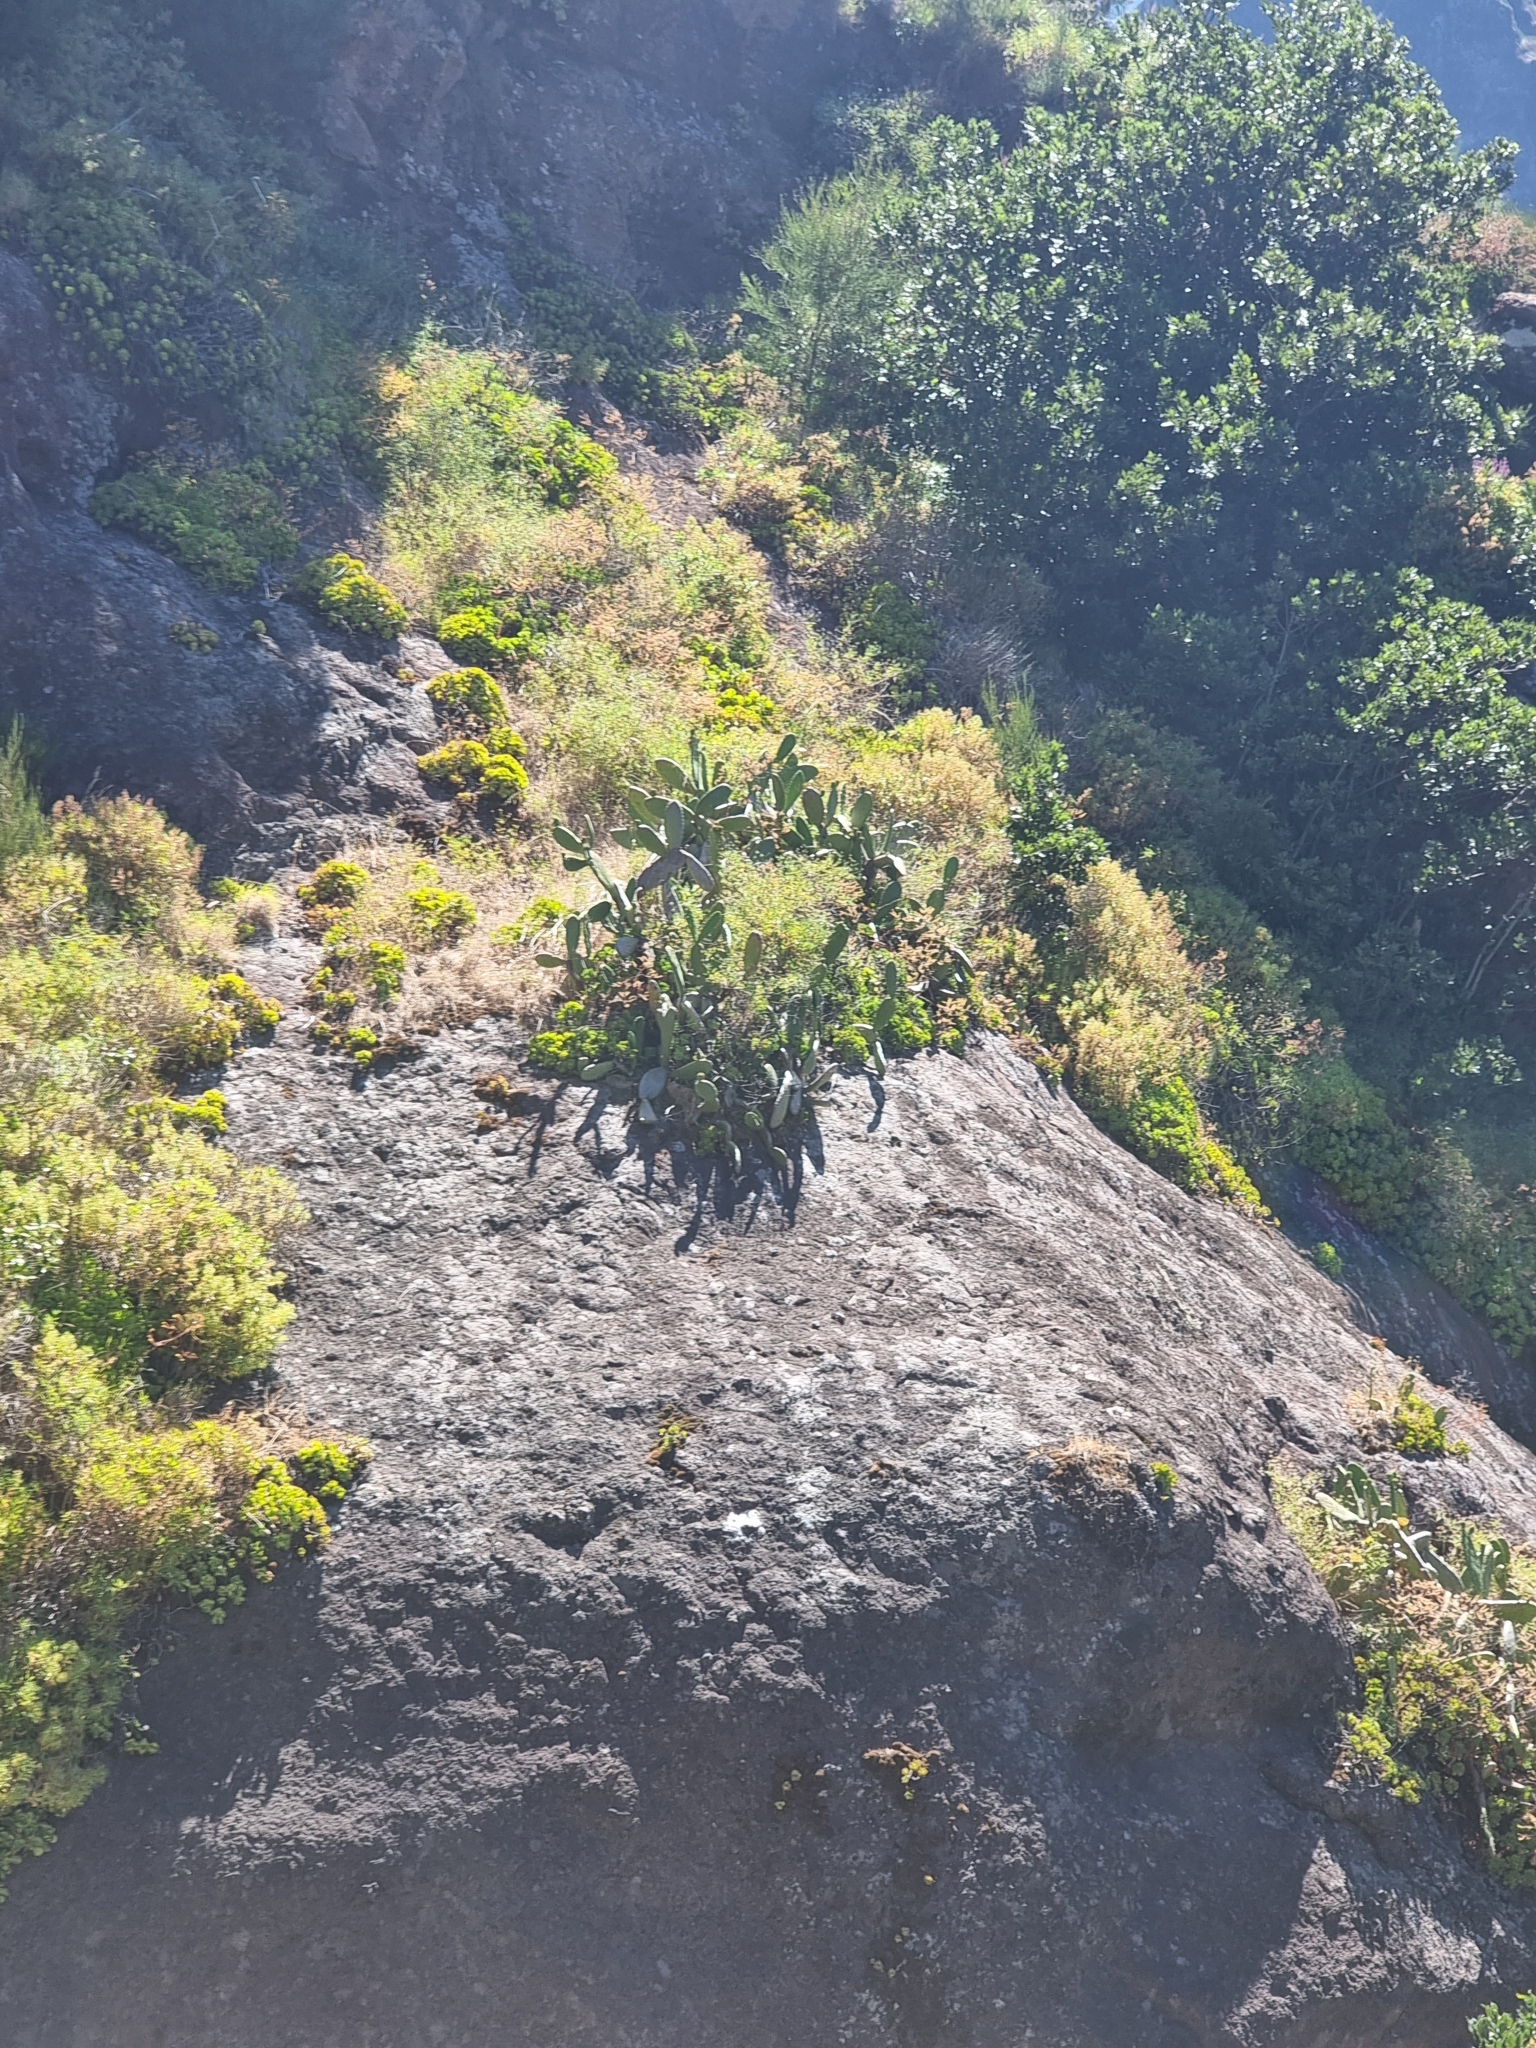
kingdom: Plantae
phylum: Tracheophyta
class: Magnoliopsida
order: Caryophyllales
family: Cactaceae
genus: Opuntia
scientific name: Opuntia ficus-indica
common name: Barbary fig
